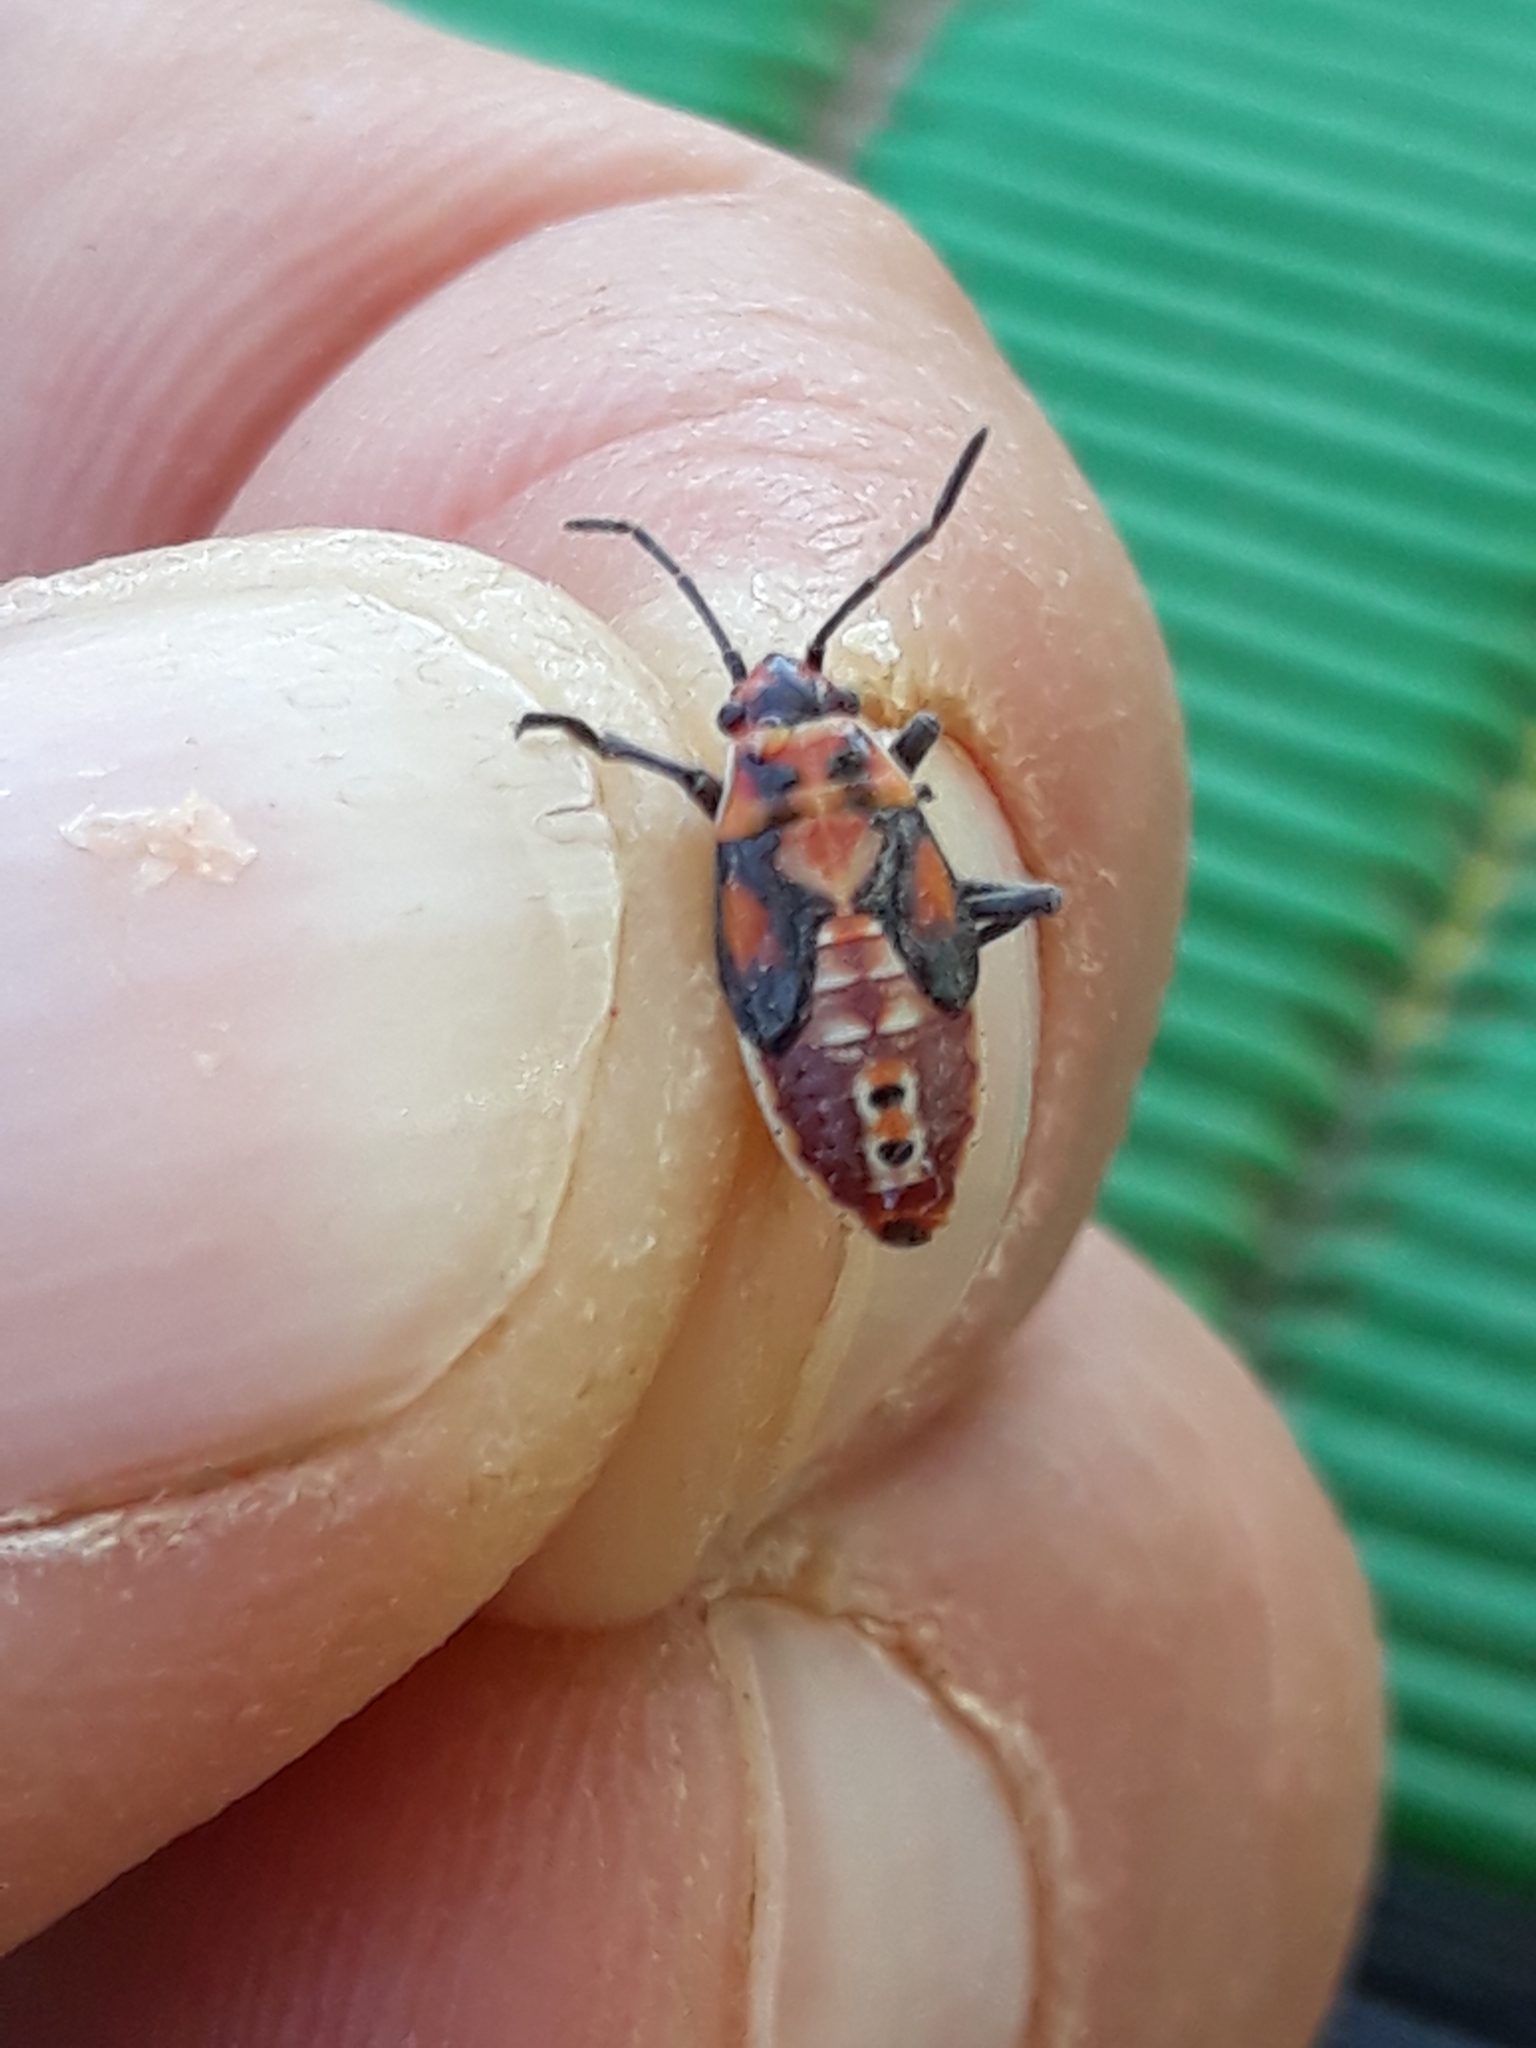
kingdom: Animalia
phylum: Arthropoda
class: Insecta
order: Hemiptera
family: Lygaeidae
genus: Spilostethus
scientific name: Spilostethus pandurus
